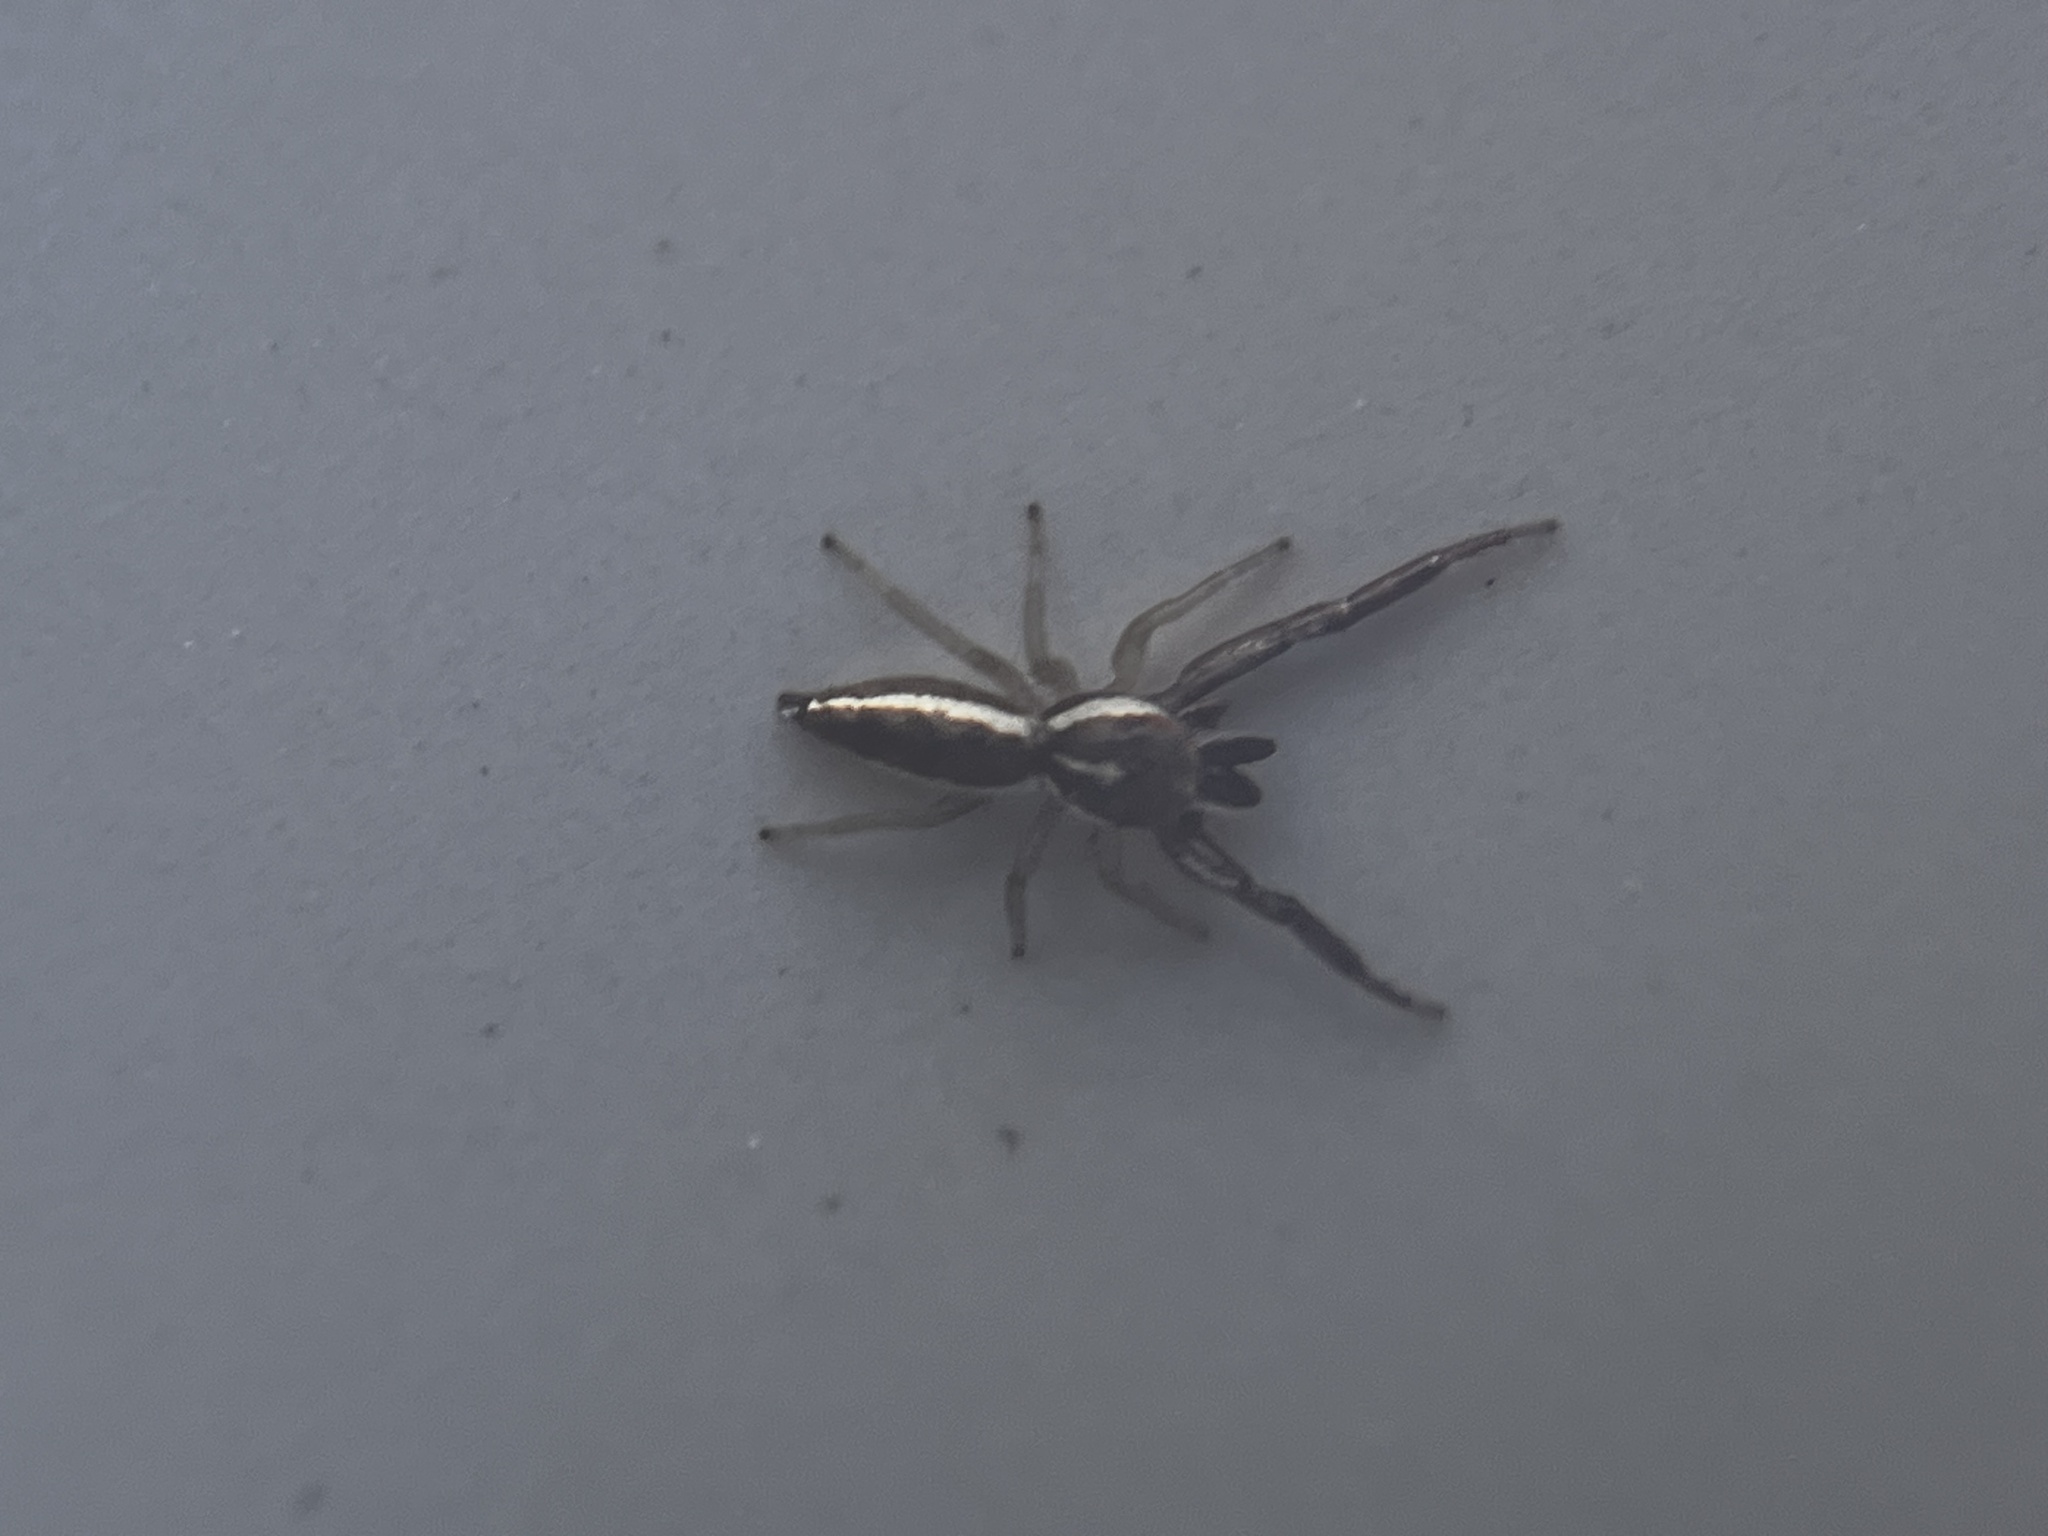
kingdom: Animalia
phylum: Arthropoda
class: Arachnida
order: Araneae
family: Salticidae
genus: Hentzia
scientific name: Hentzia palmarum
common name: Common hentz jumping spider
